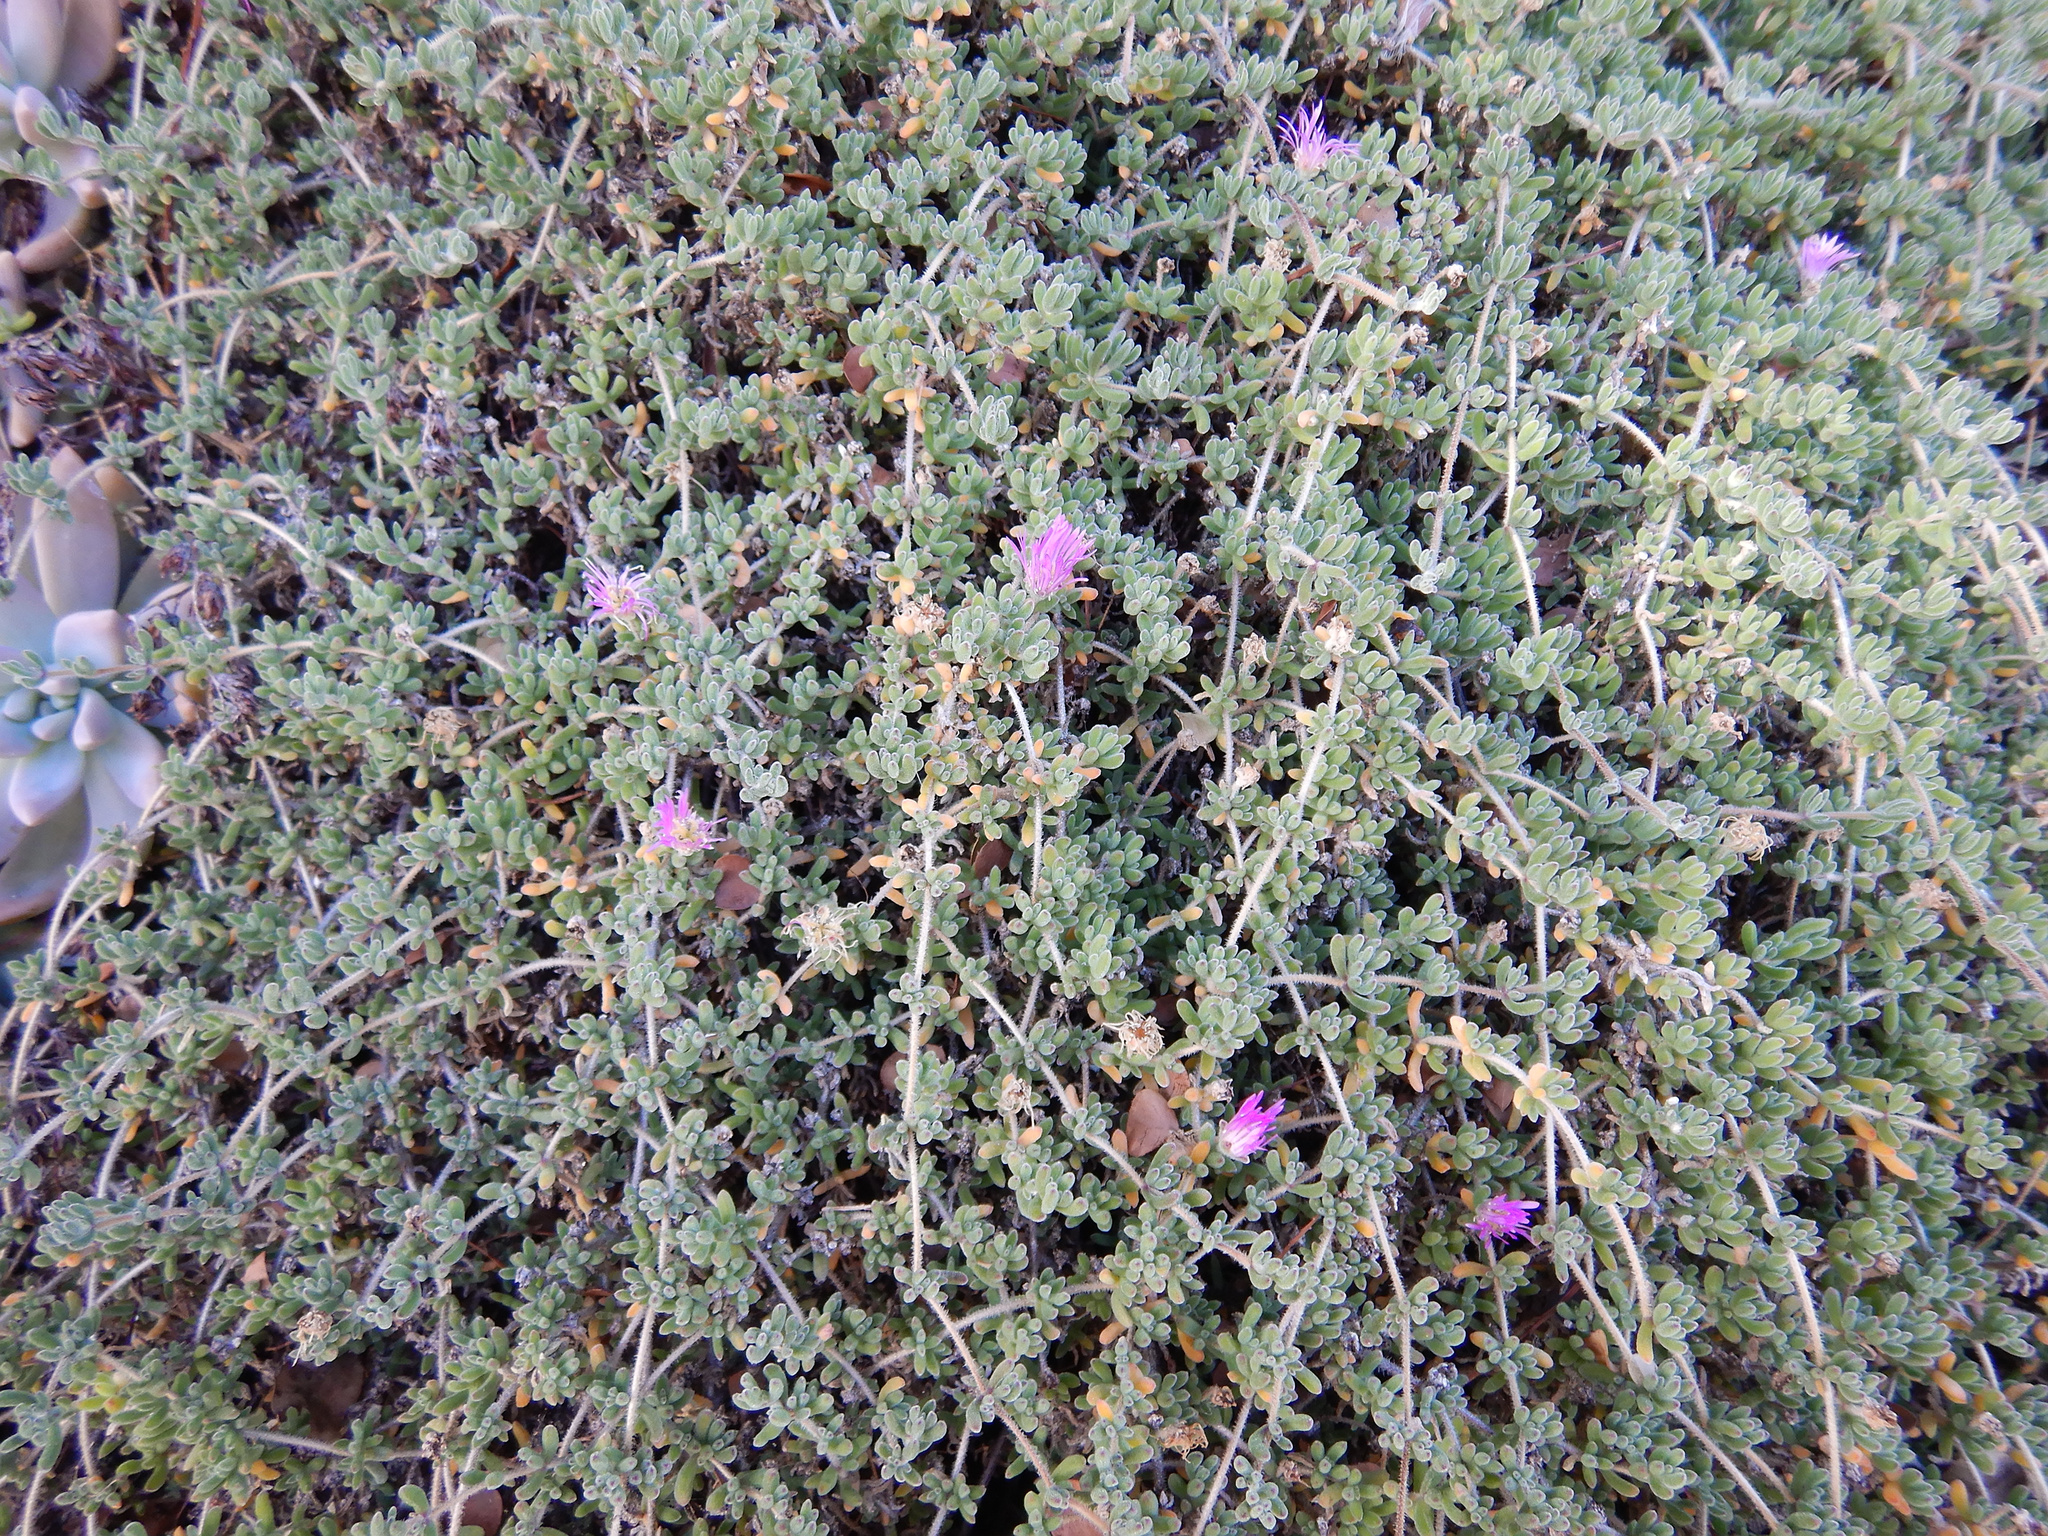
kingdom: Plantae
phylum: Tracheophyta
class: Magnoliopsida
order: Caryophyllales
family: Aizoaceae
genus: Drosanthemum
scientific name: Drosanthemum floribundum
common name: Pale dewplant
